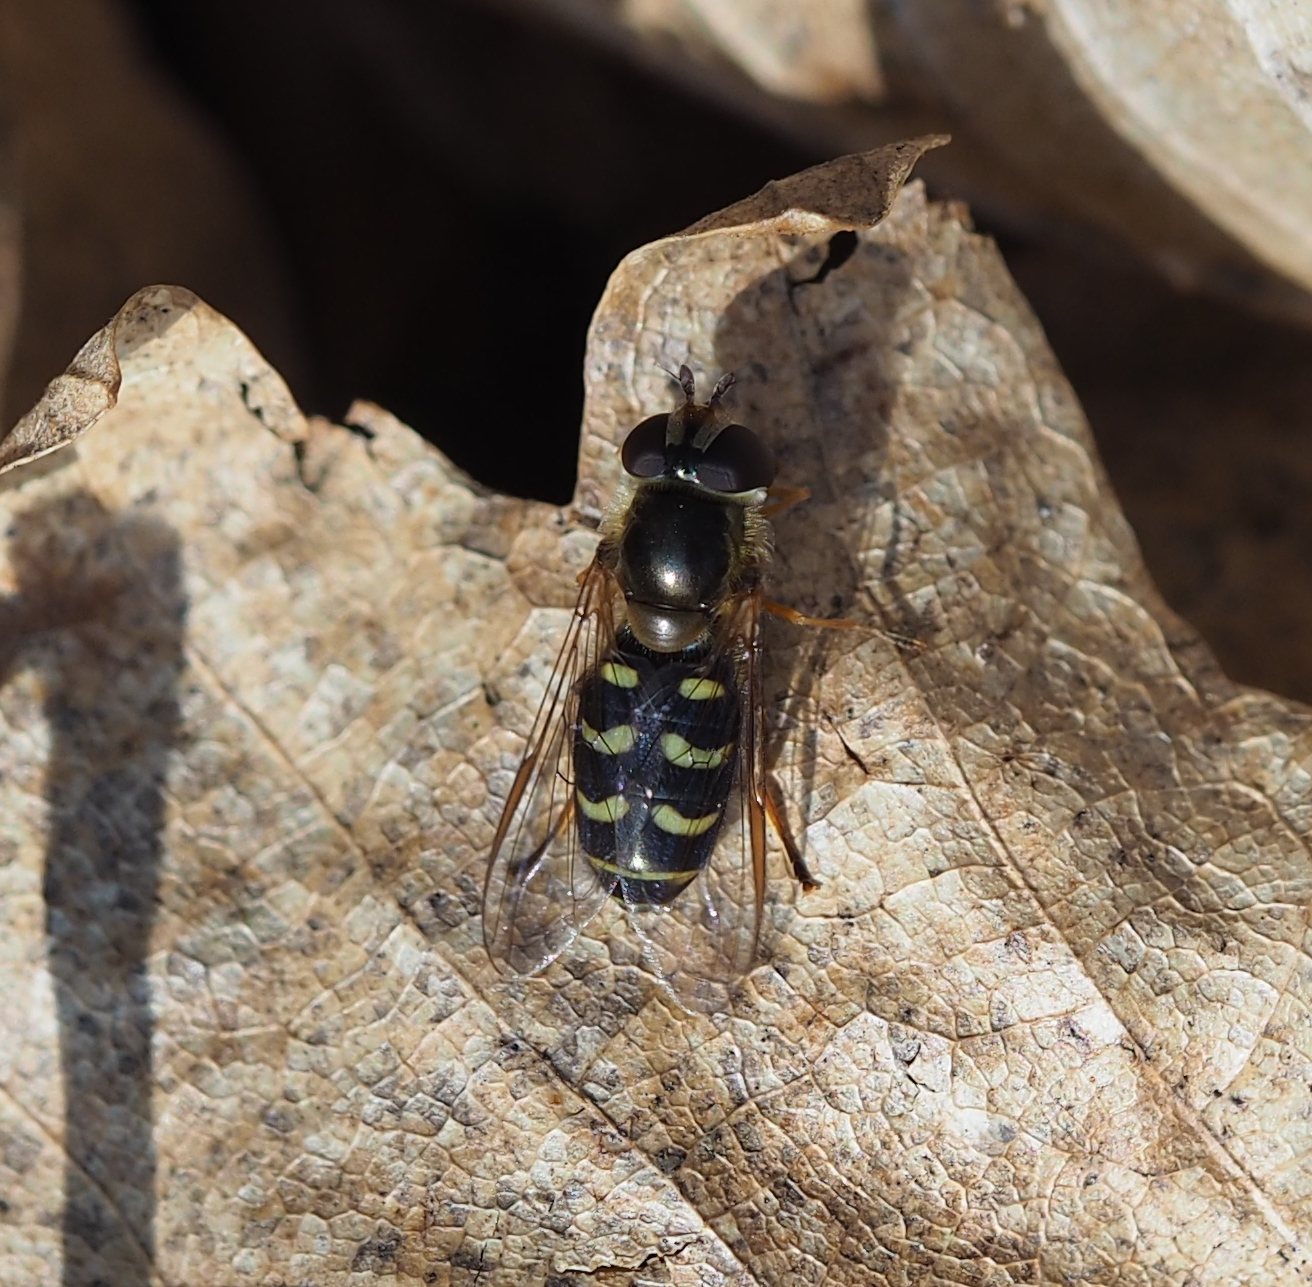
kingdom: Animalia
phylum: Arthropoda
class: Insecta
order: Diptera
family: Syrphidae
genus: Lapposyrphus
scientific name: Lapposyrphus lapponicus
